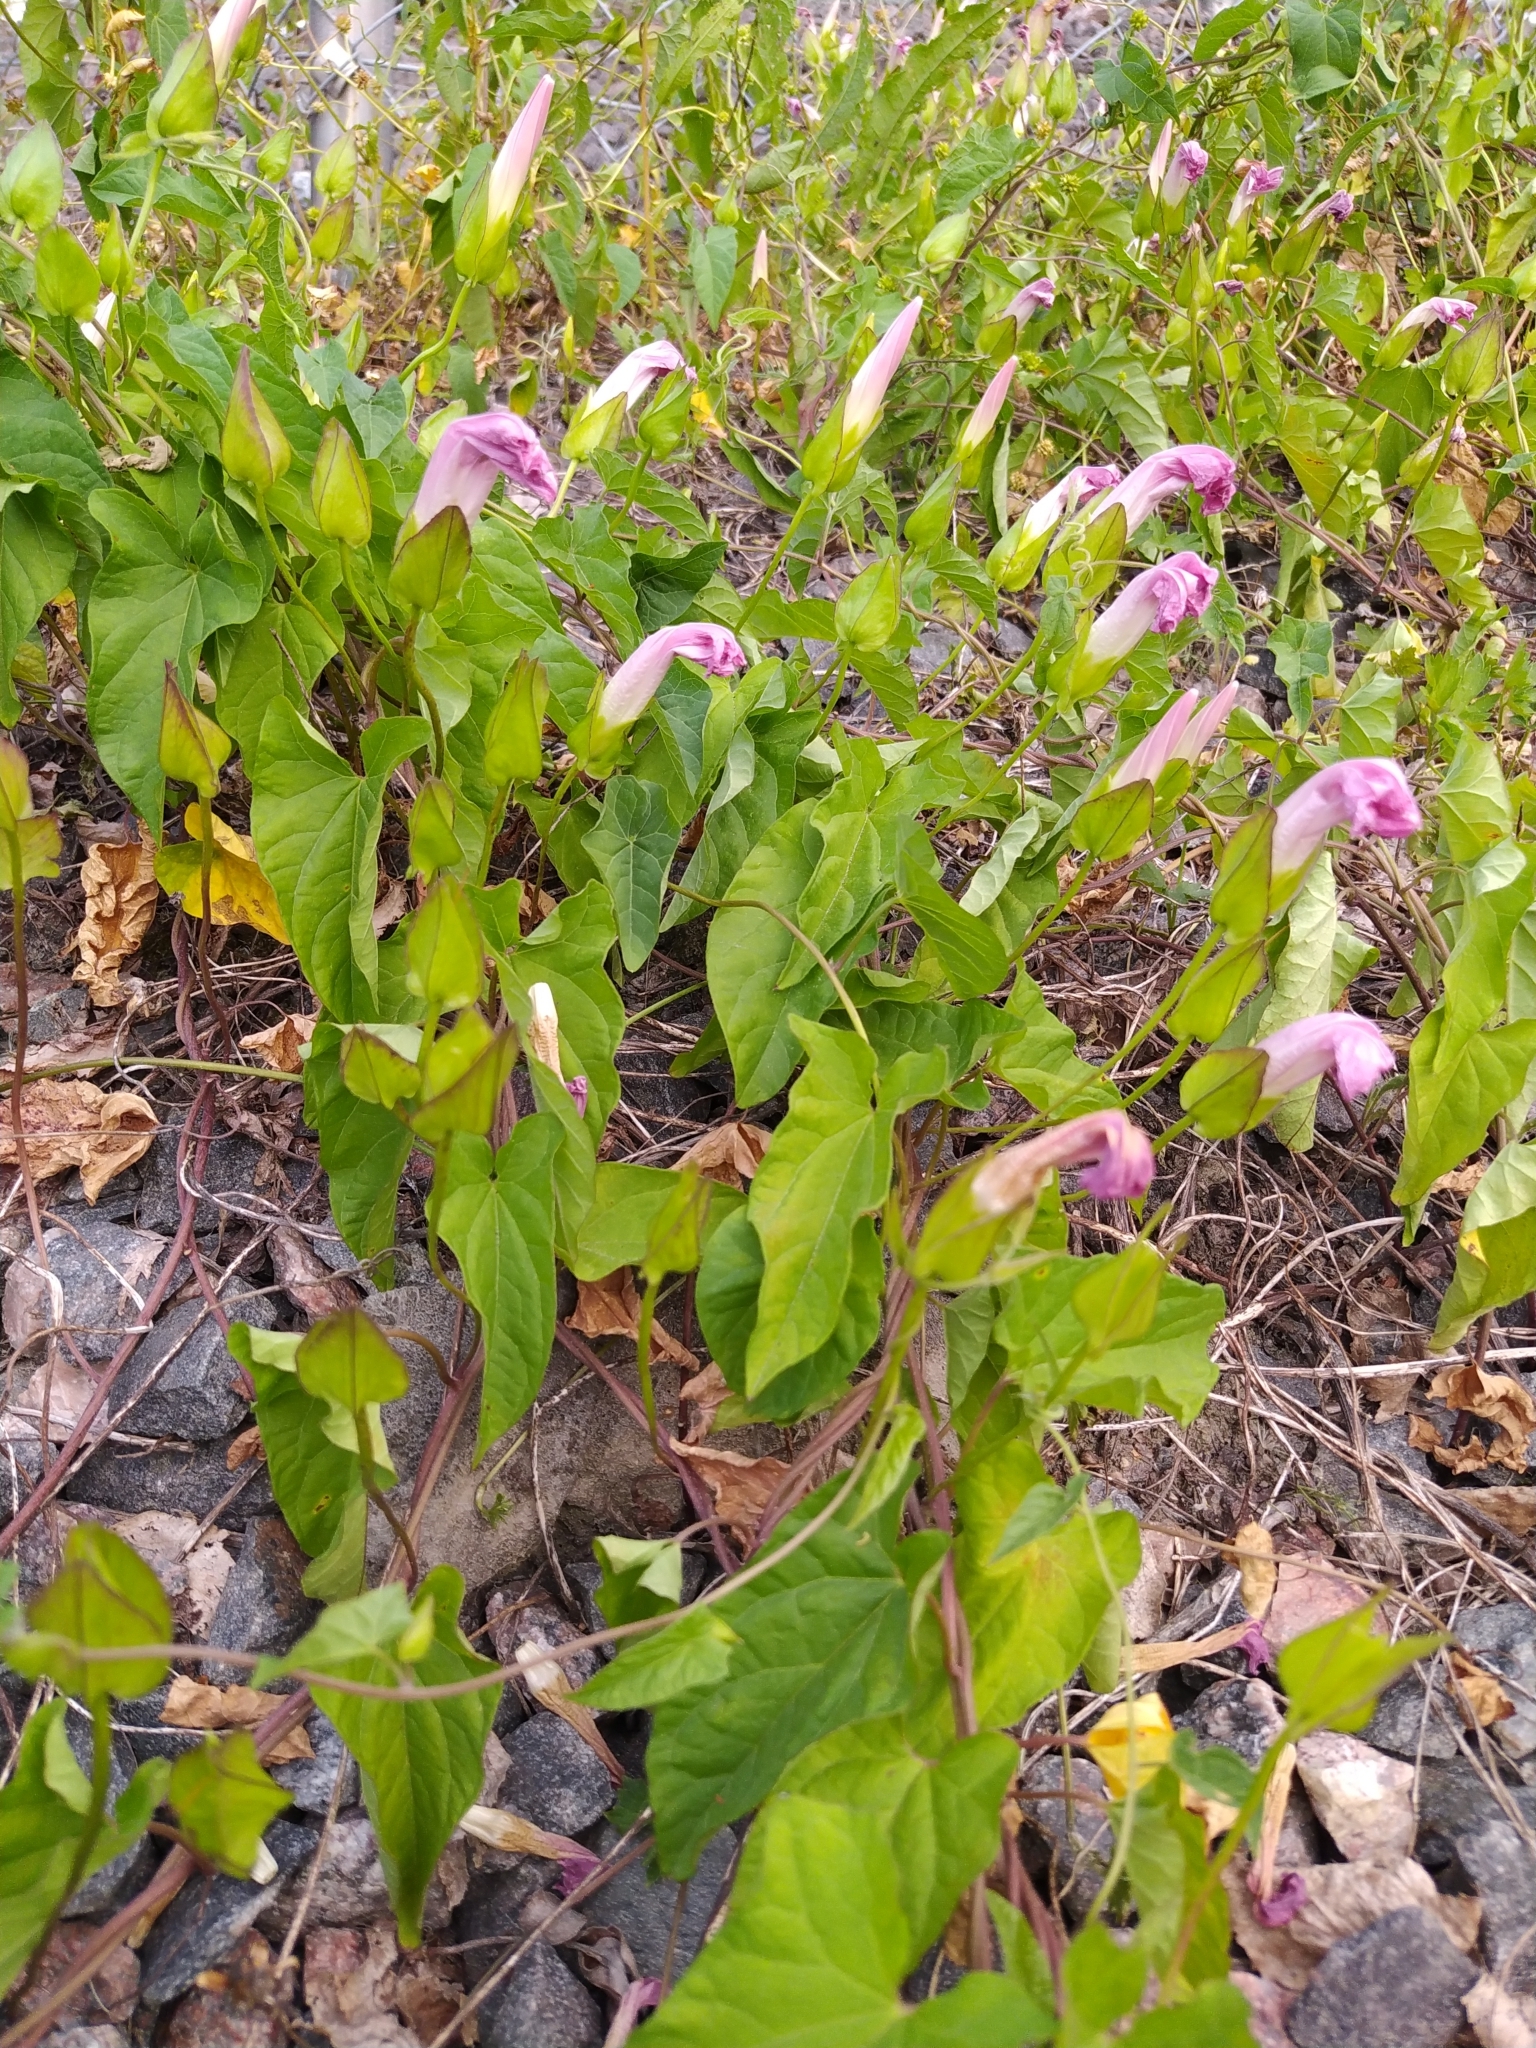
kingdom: Plantae
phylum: Tracheophyta
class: Magnoliopsida
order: Solanales
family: Convolvulaceae
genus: Calystegia
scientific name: Calystegia sepium
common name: Hedge bindweed
